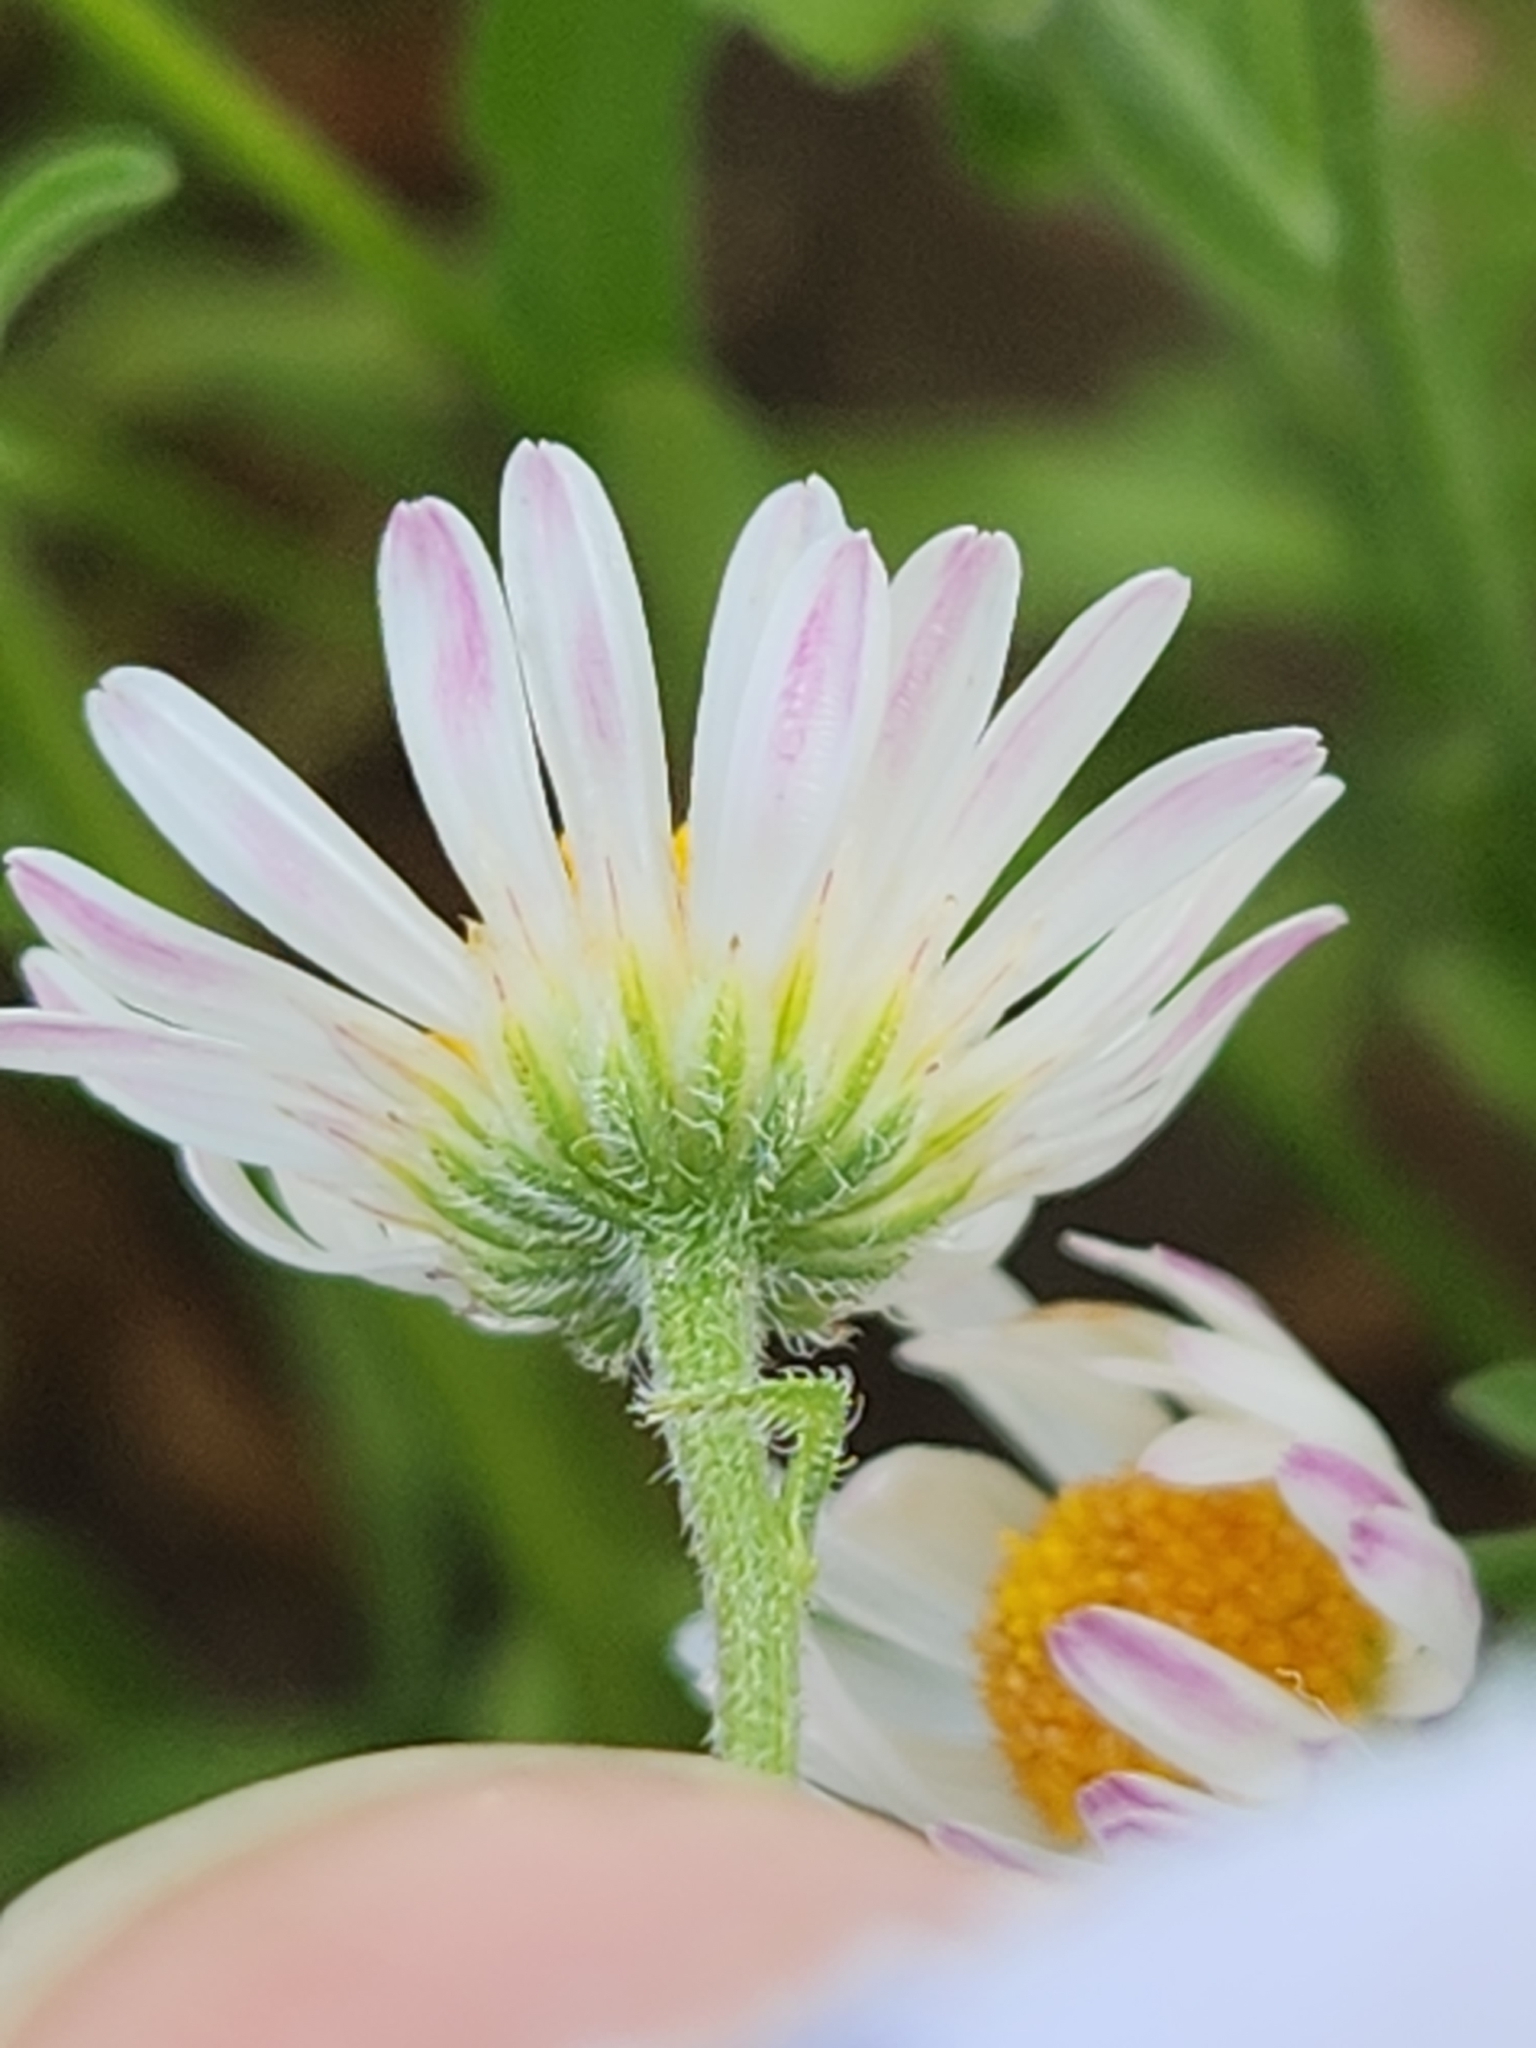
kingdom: Plantae
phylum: Tracheophyta
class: Magnoliopsida
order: Asterales
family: Asteraceae
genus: Aphanostephus
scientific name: Aphanostephus ramosissimus
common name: Plains lazy daisy
